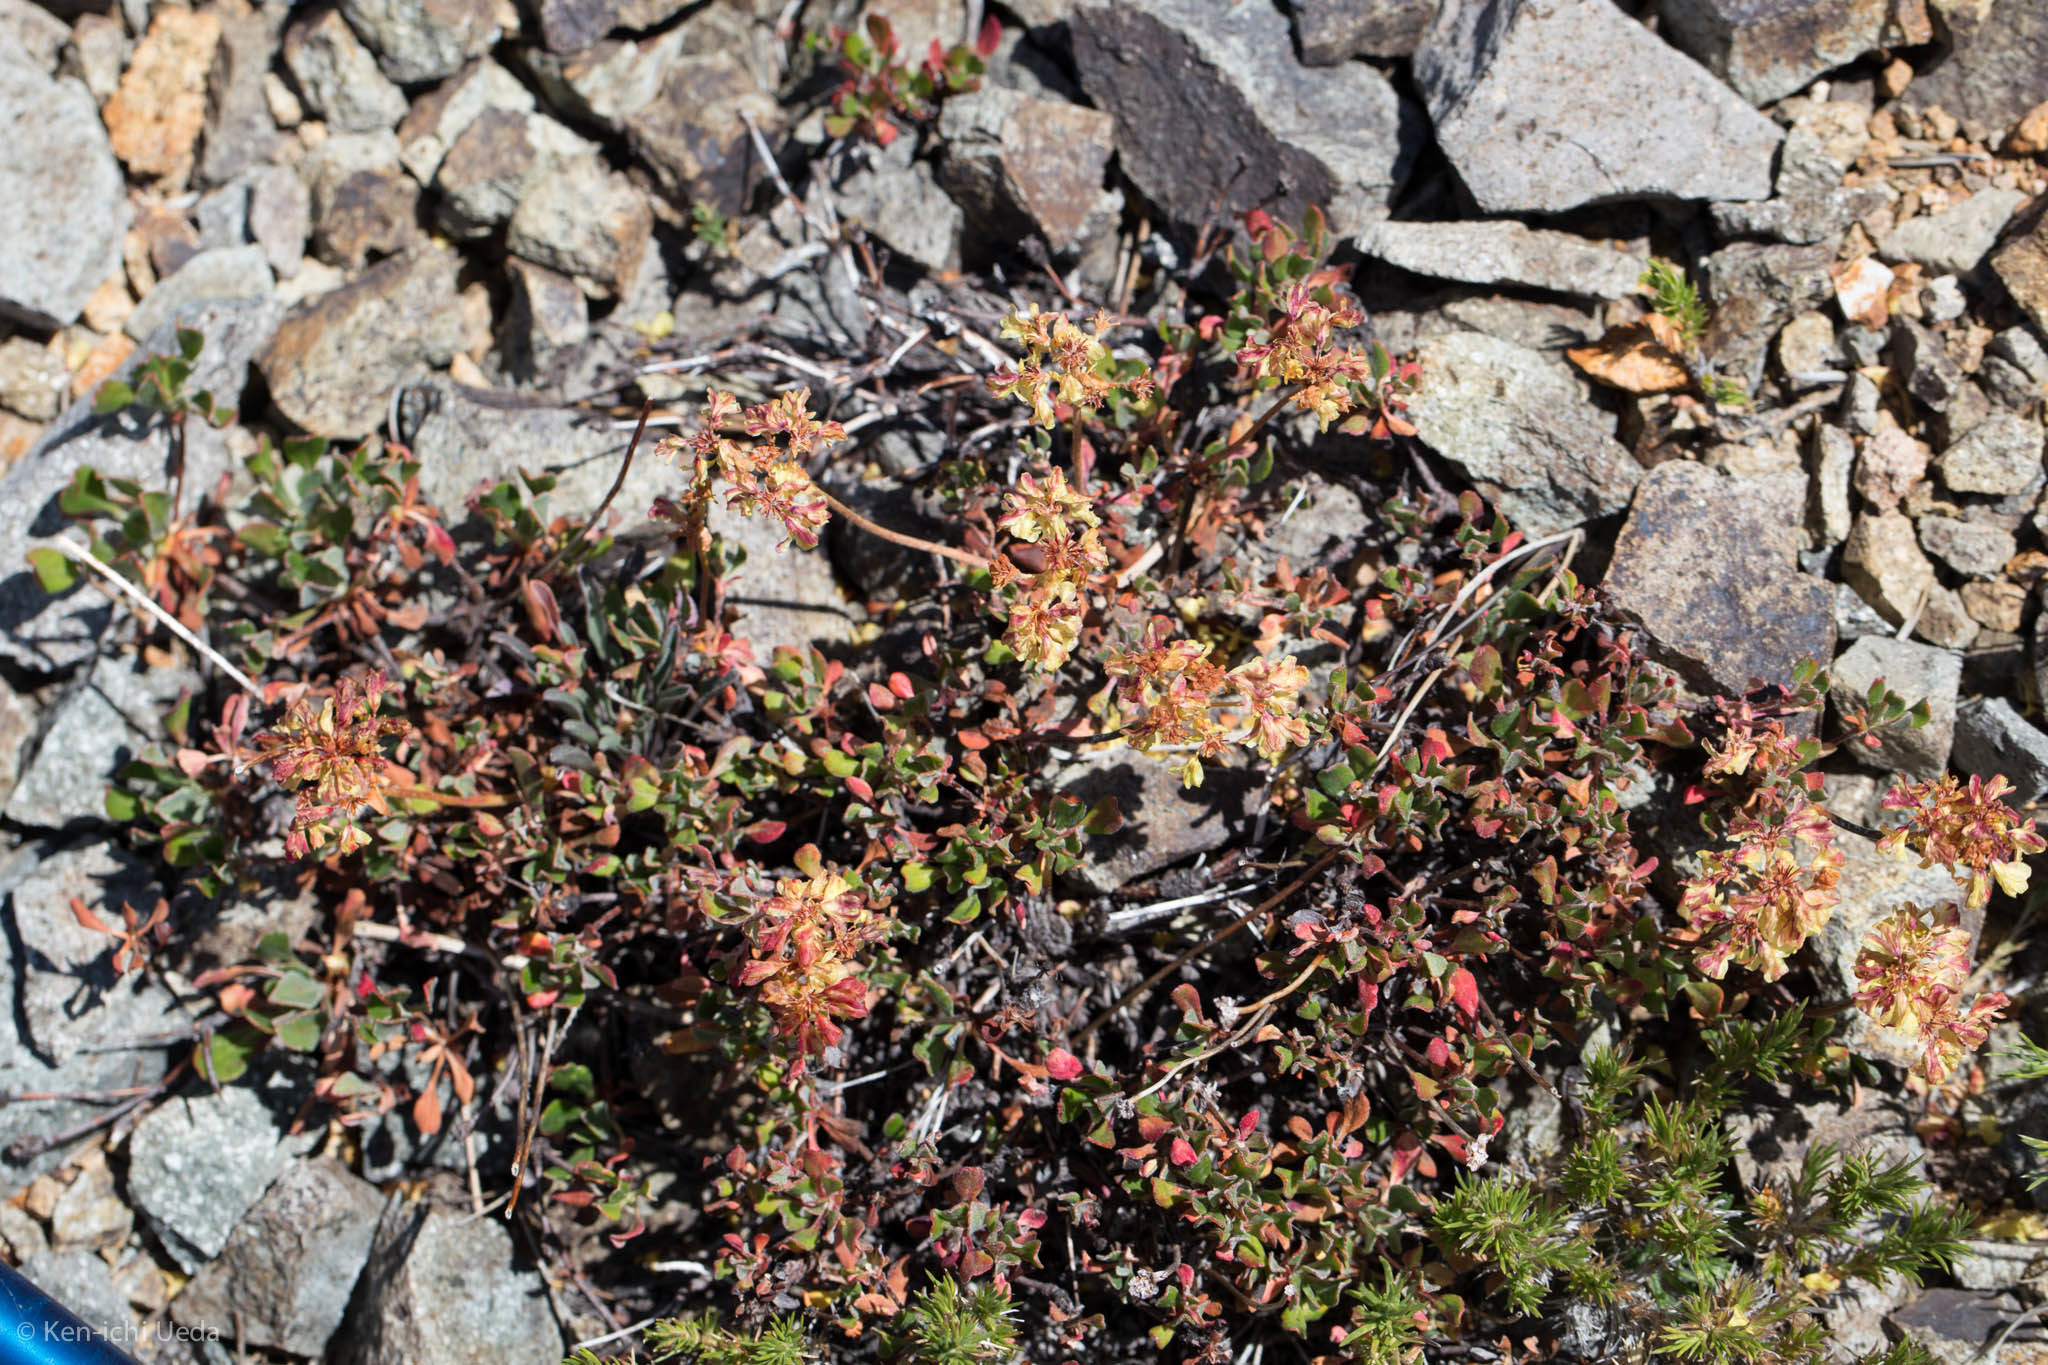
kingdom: Plantae
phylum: Tracheophyta
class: Magnoliopsida
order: Caryophyllales
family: Polygonaceae
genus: Eriogonum
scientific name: Eriogonum umbellatum
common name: Sulfur-buckwheat
